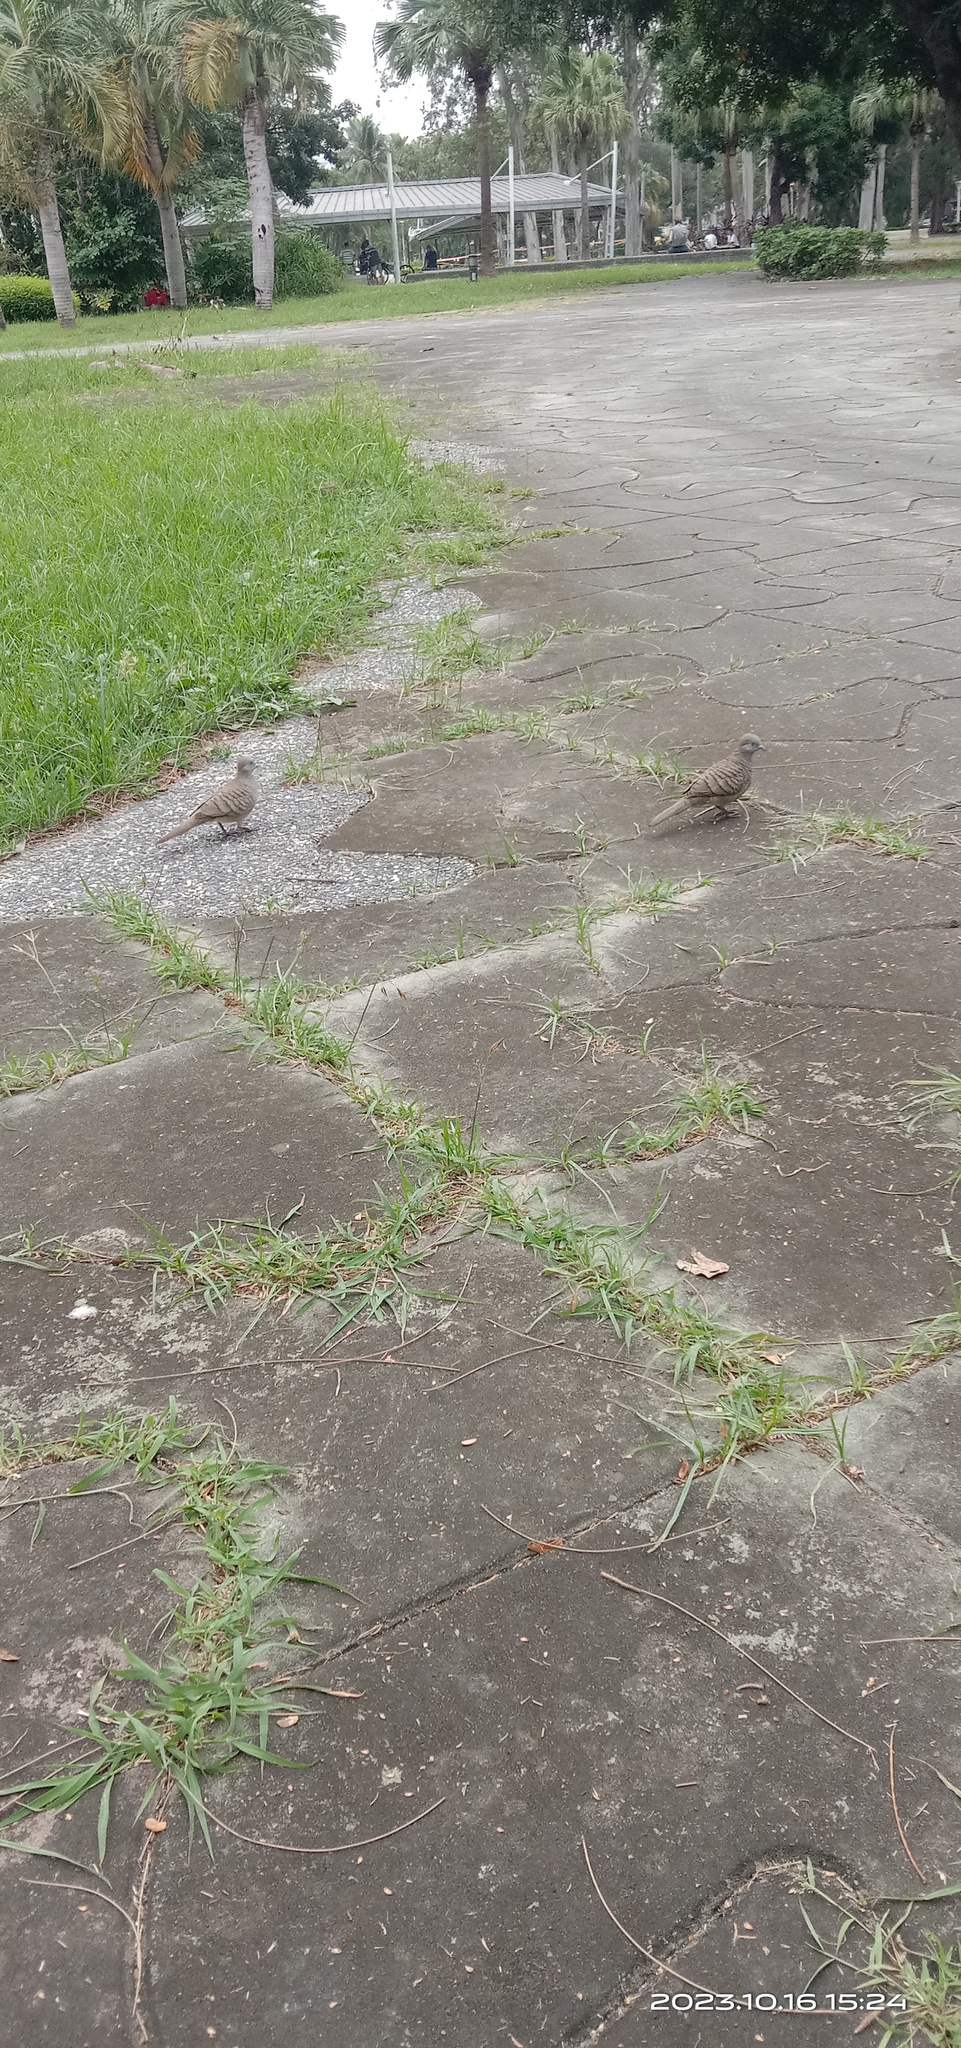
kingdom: Animalia
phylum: Chordata
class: Aves
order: Columbiformes
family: Columbidae
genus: Geopelia
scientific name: Geopelia striata
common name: Zebra dove
